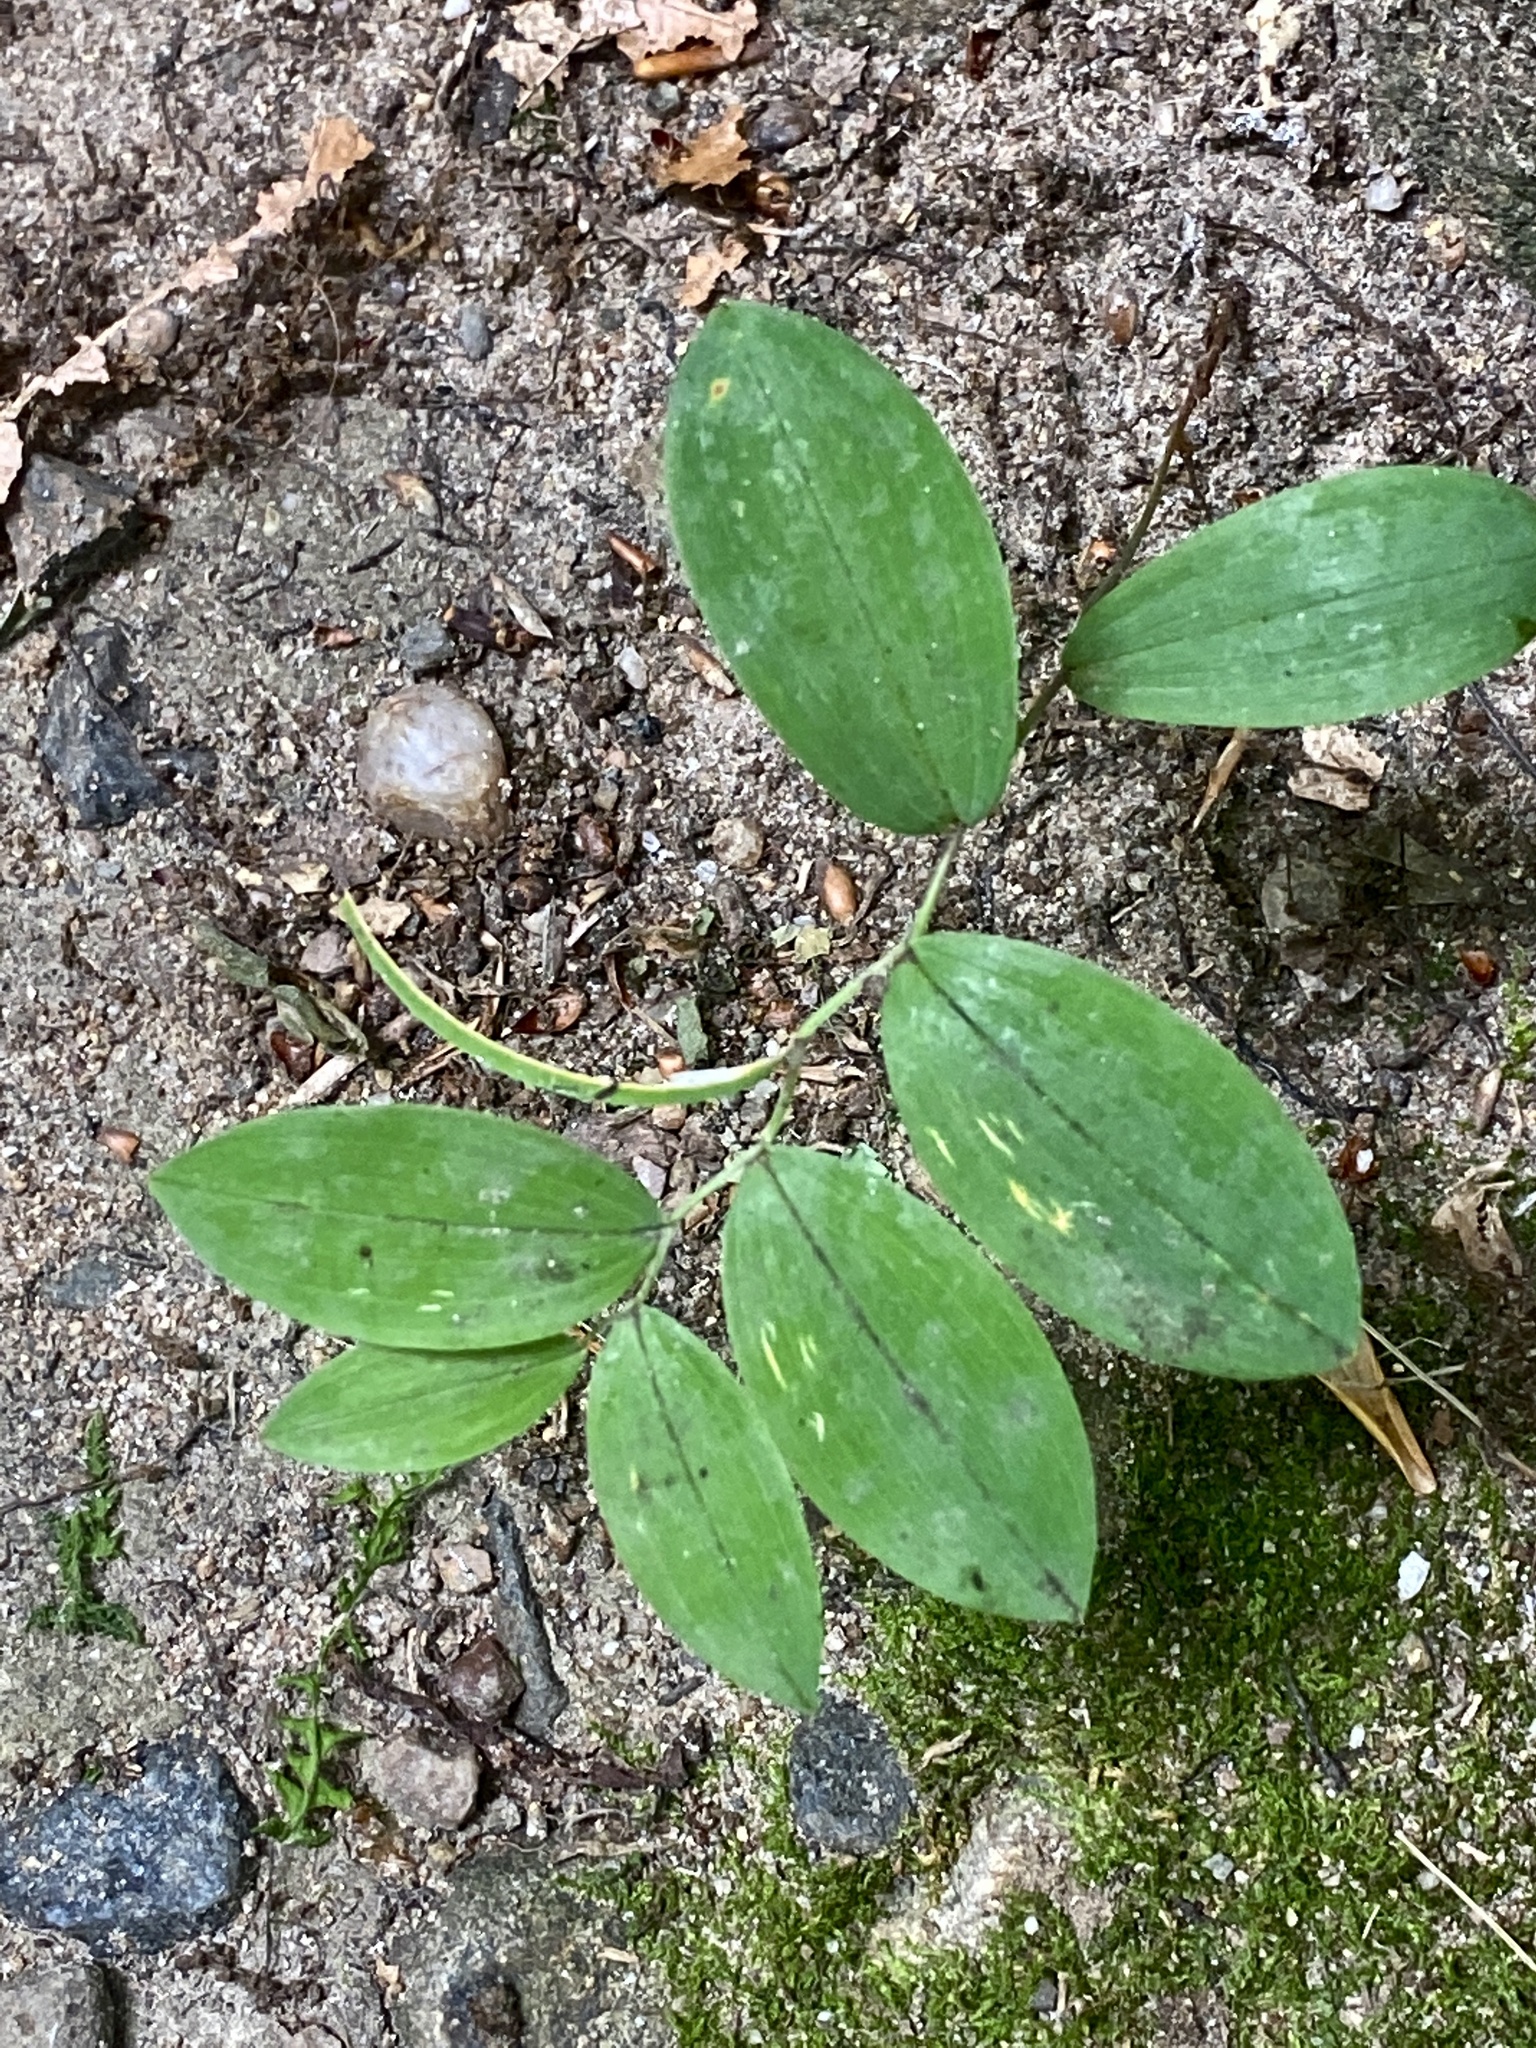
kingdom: Plantae
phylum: Tracheophyta
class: Liliopsida
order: Liliales
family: Colchicaceae
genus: Uvularia
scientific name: Uvularia sessilifolia
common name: Straw-lily
